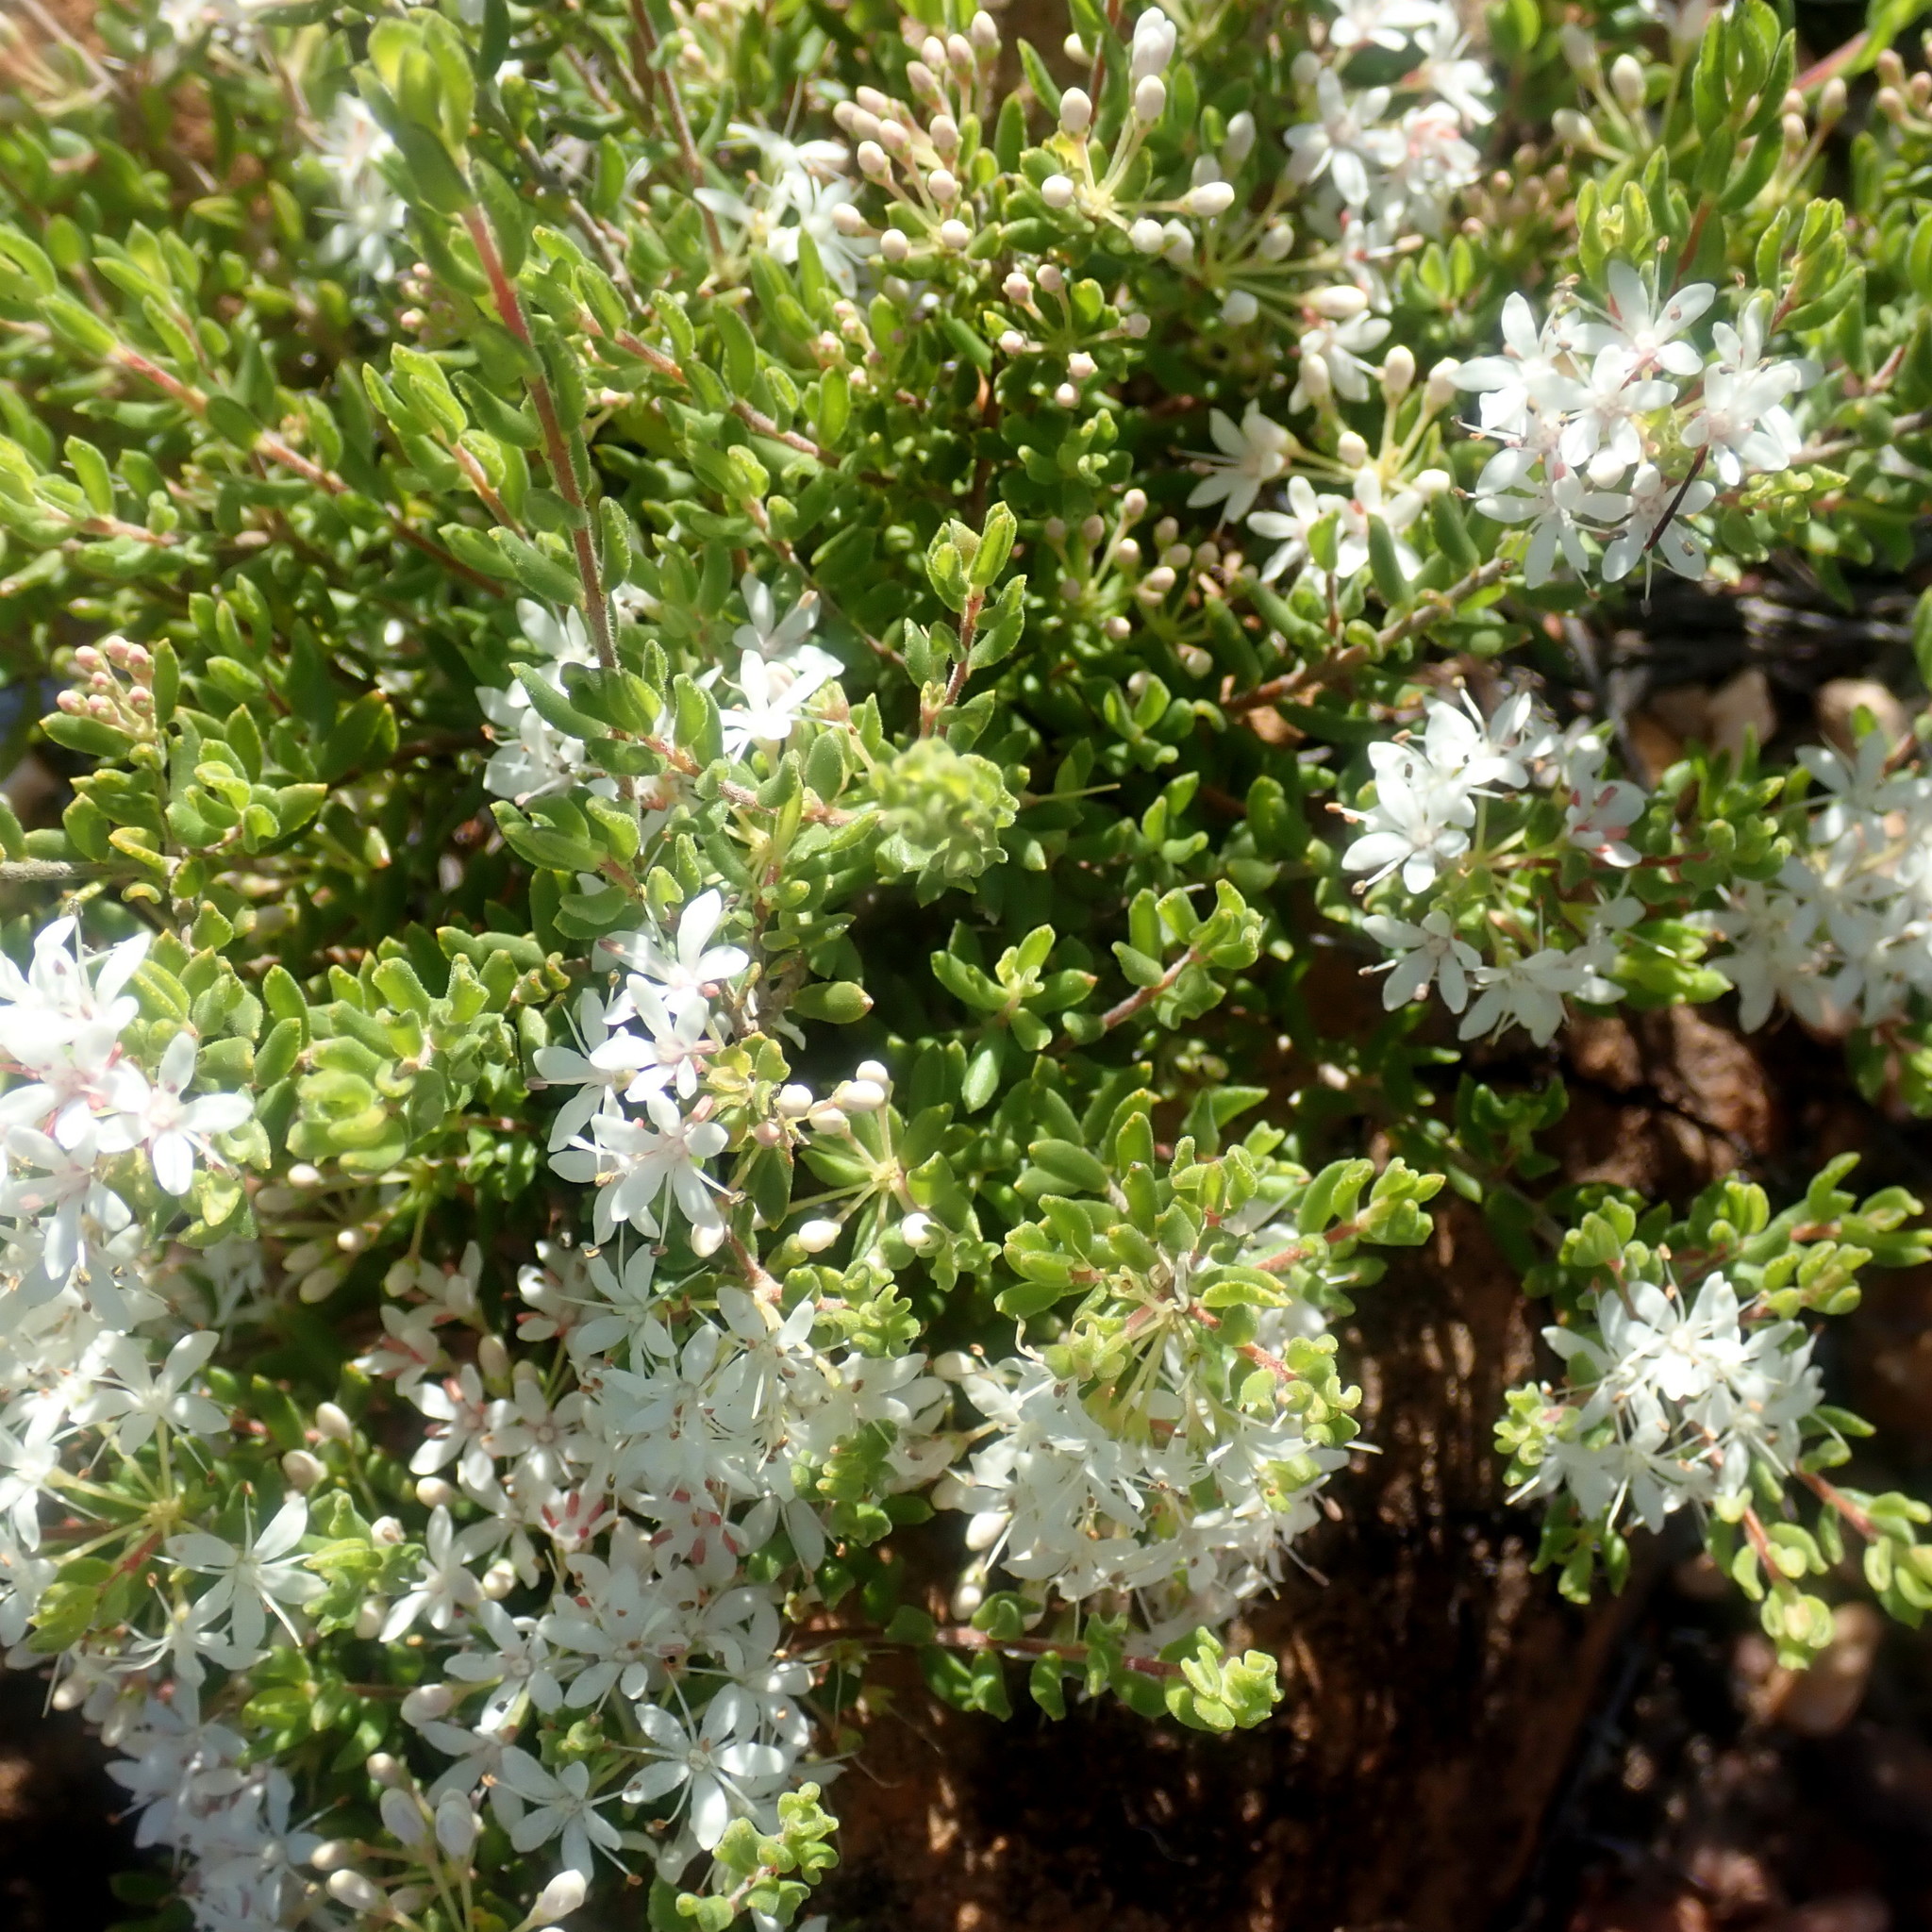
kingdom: Plantae
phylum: Tracheophyta
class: Magnoliopsida
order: Sapindales
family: Rutaceae
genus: Agathosma
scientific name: Agathosma mundtii
